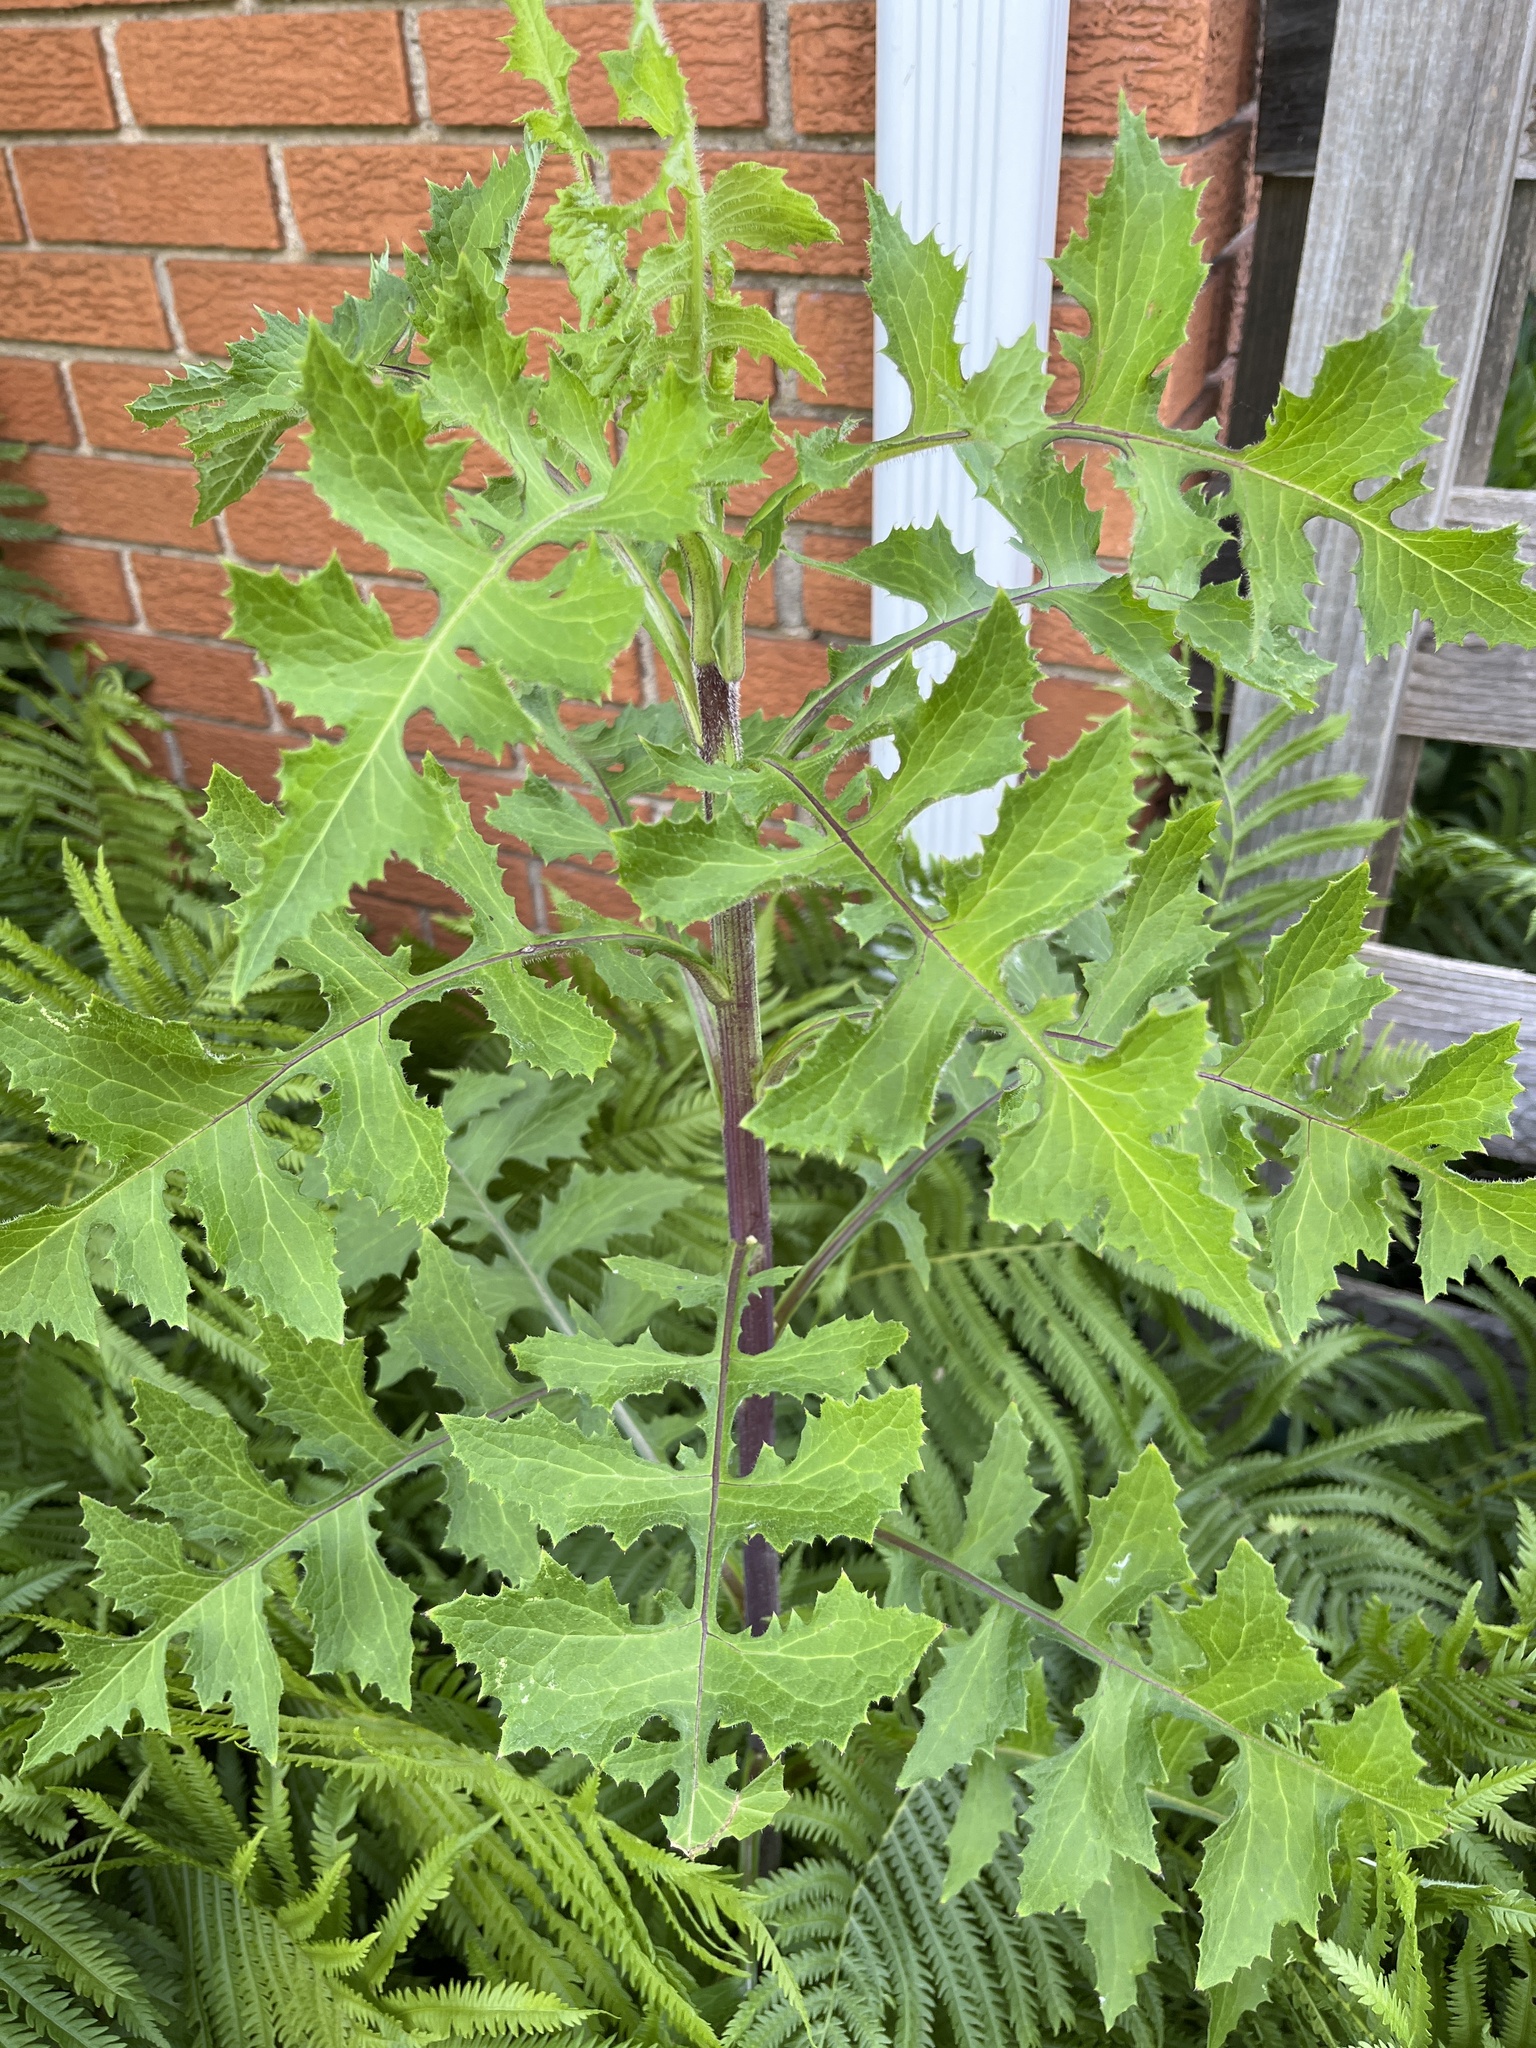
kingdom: Plantae
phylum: Tracheophyta
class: Magnoliopsida
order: Asterales
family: Asteraceae
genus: Lactuca
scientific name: Lactuca biennis
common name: Blue wood lettuce
